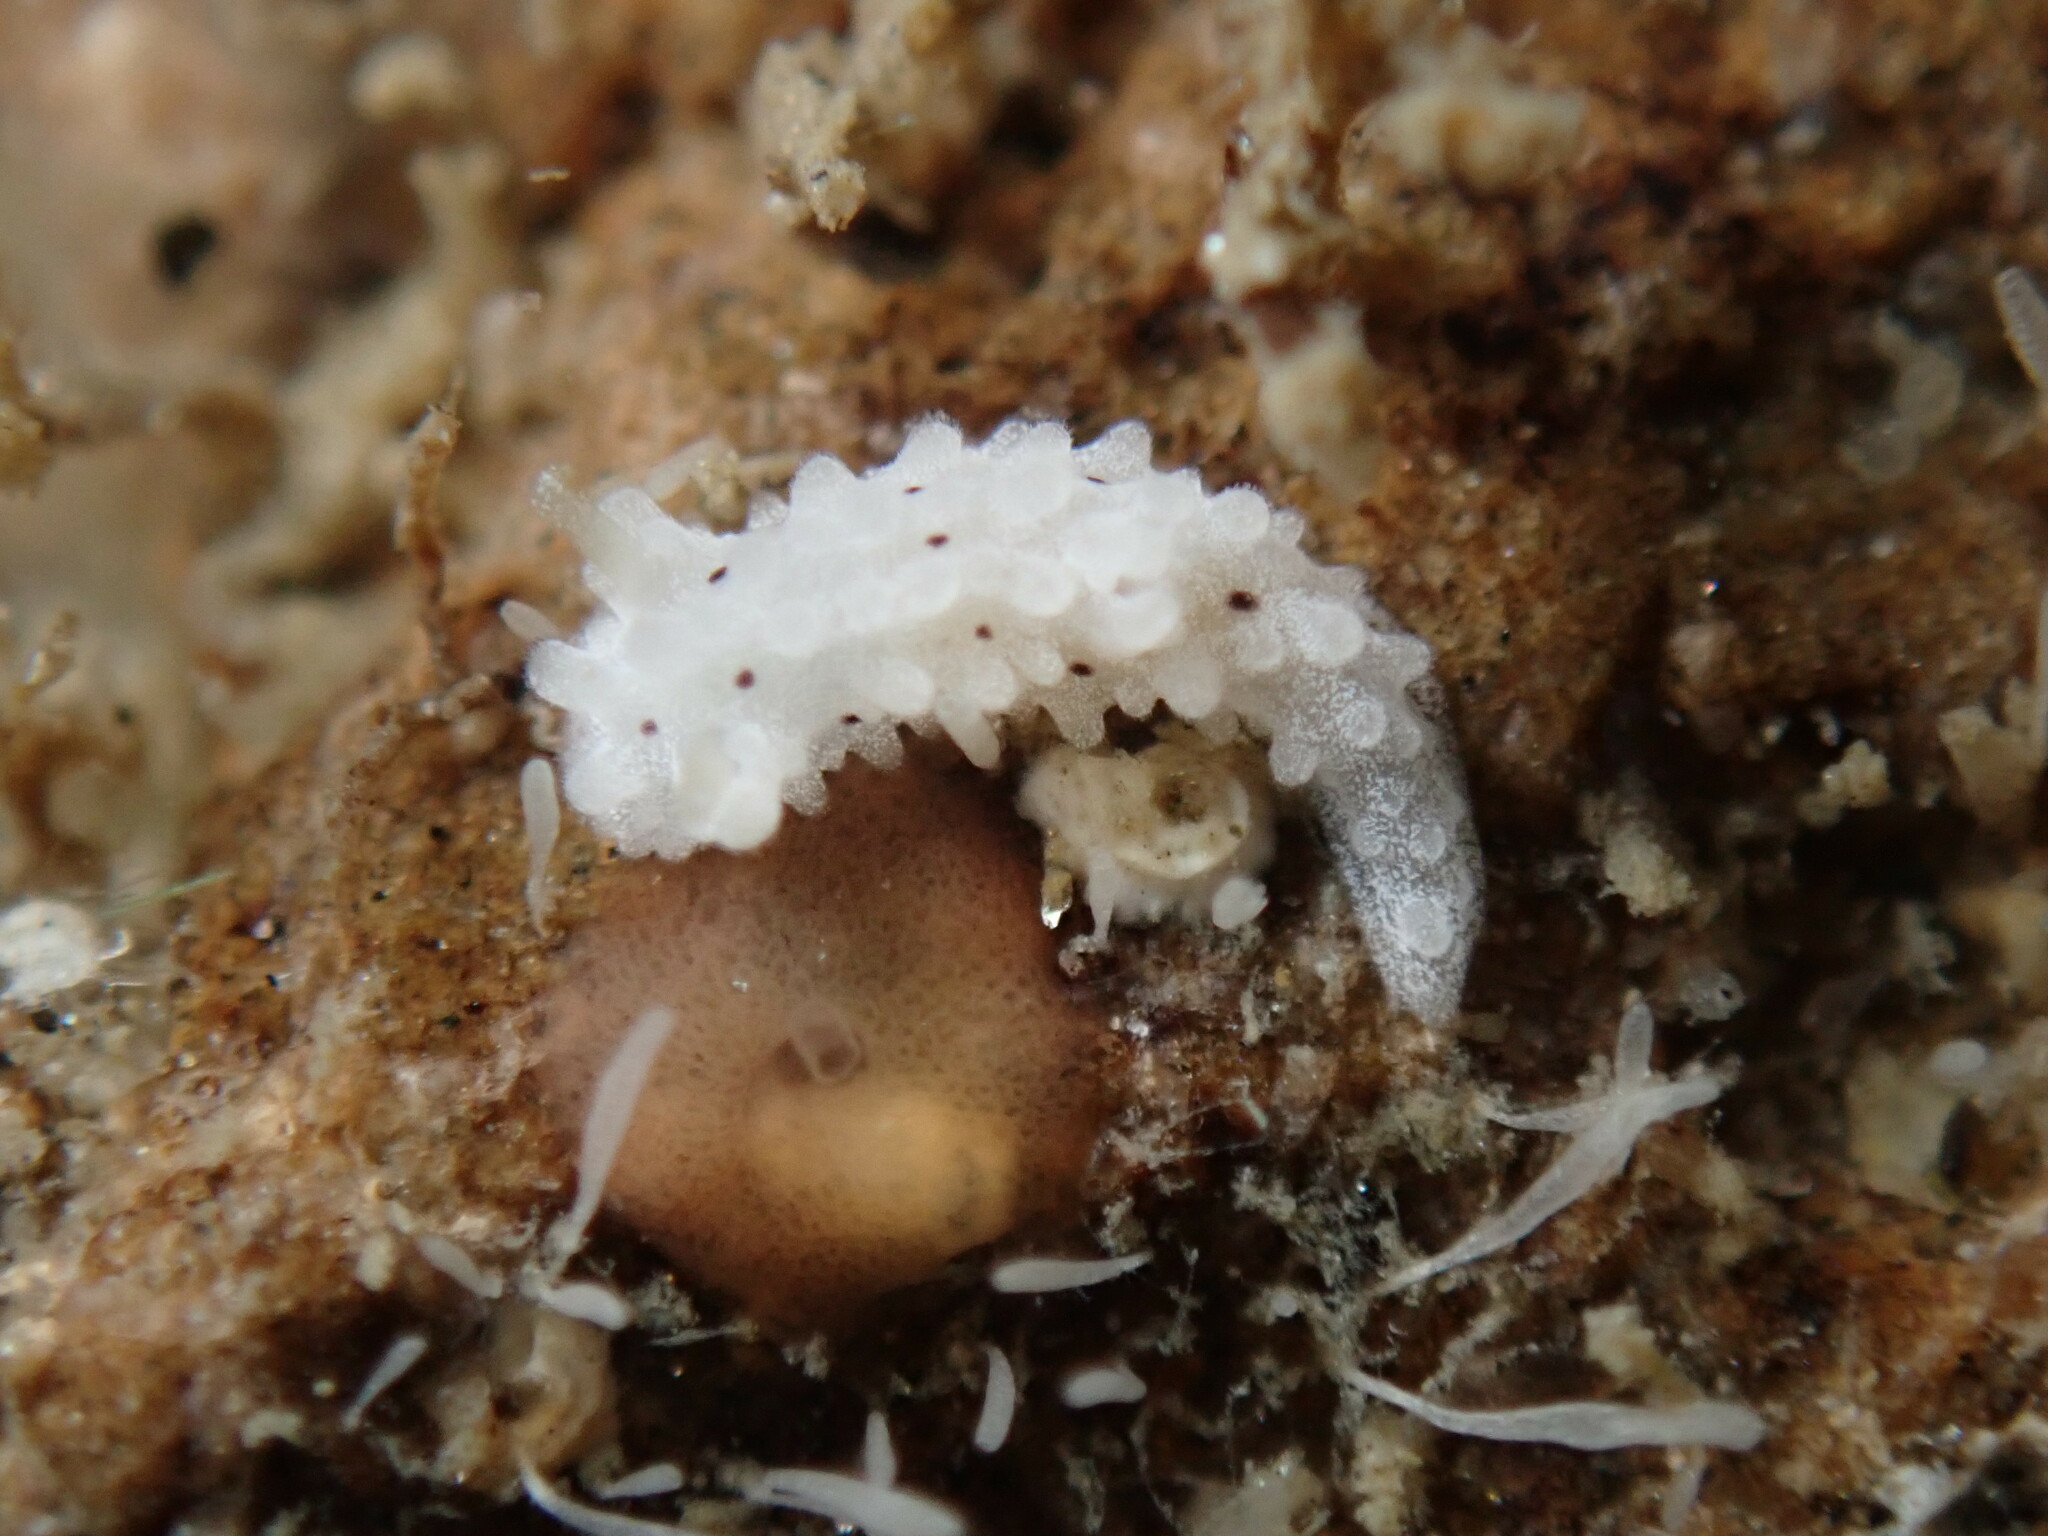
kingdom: Animalia
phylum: Mollusca
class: Gastropoda
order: Nudibranchia
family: Aegiridae
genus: Aegires
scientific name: Aegires albopunctatus
